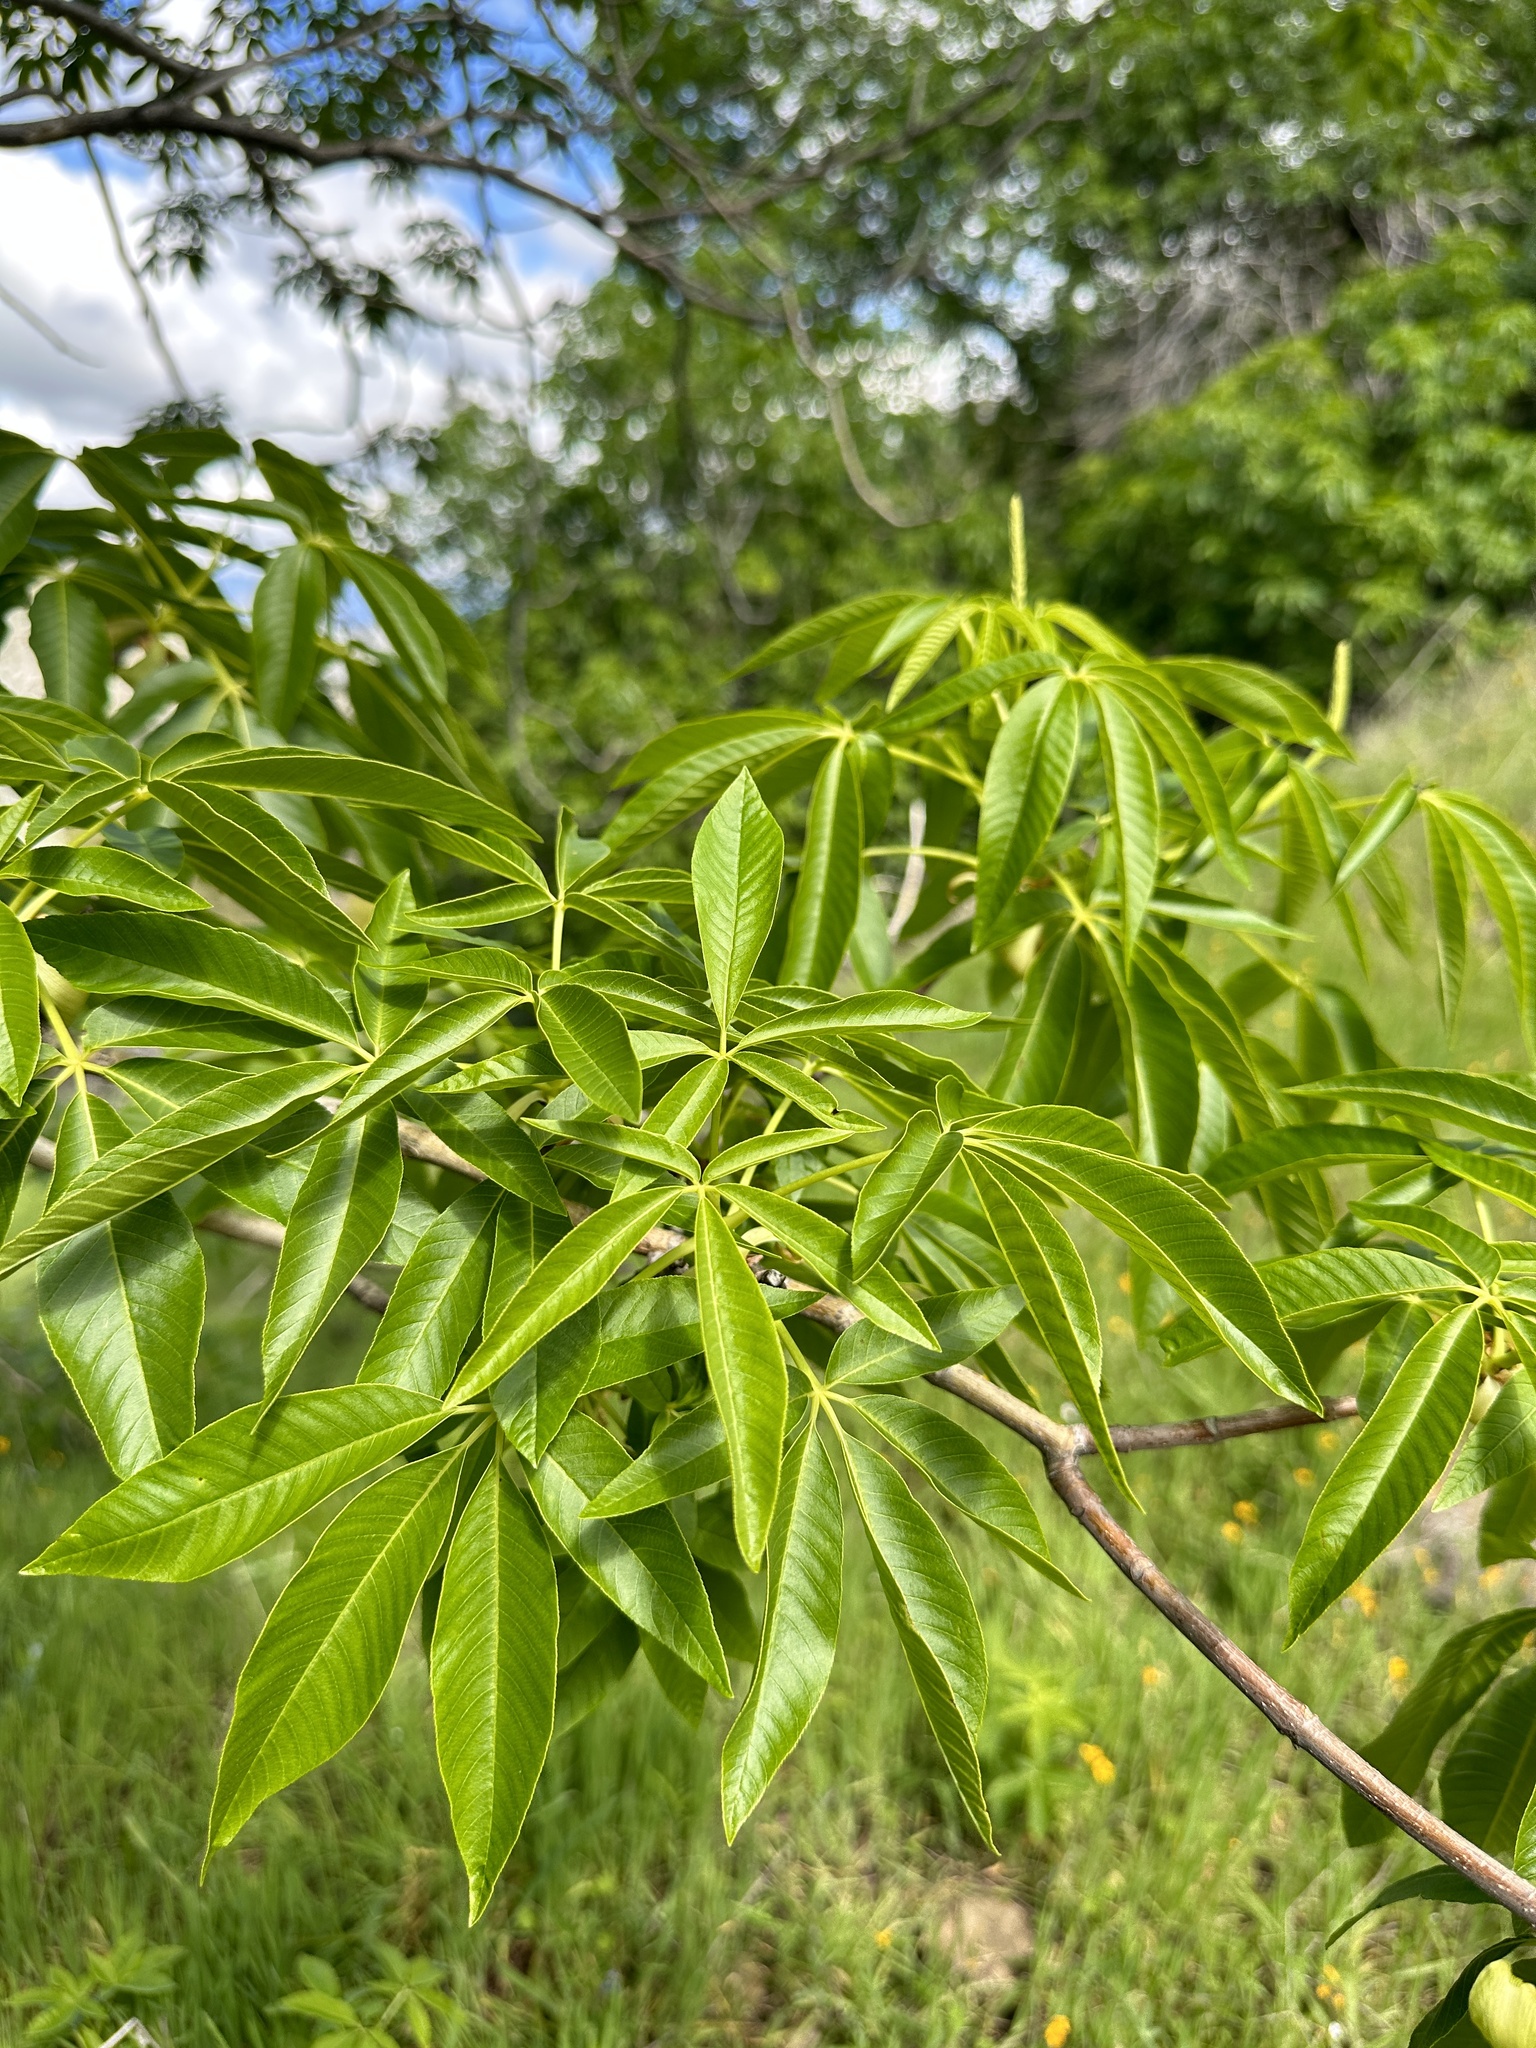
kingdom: Plantae
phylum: Tracheophyta
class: Magnoliopsida
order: Sapindales
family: Sapindaceae
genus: Aesculus
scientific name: Aesculus californica
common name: California buckeye
